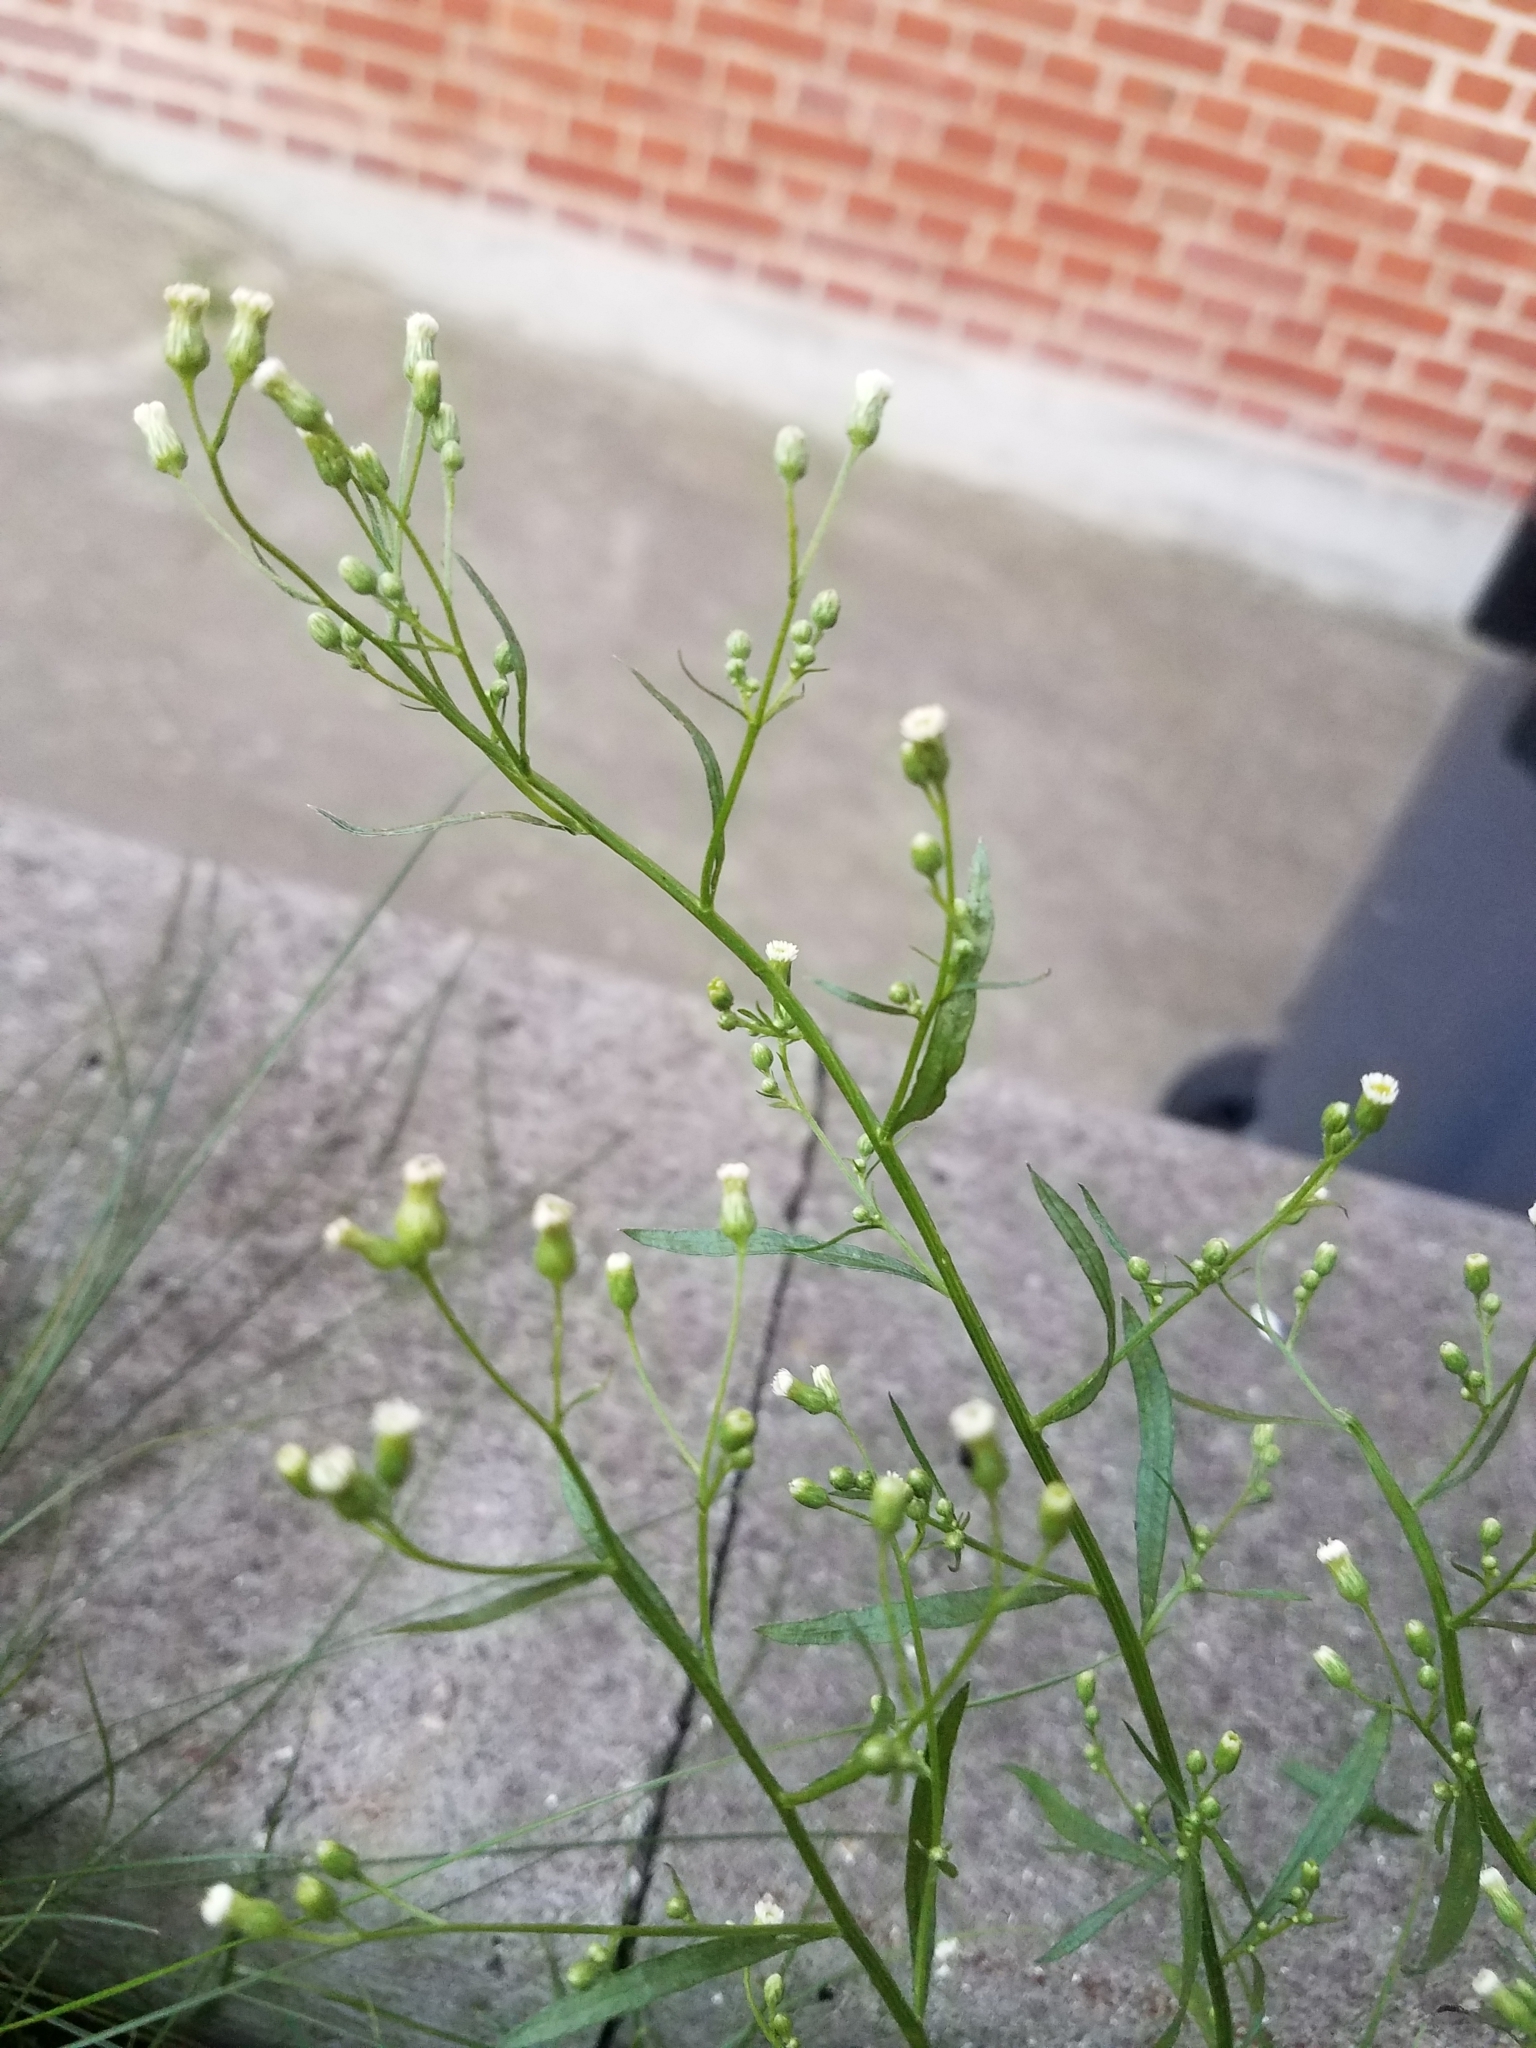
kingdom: Plantae
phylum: Tracheophyta
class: Magnoliopsida
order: Asterales
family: Asteraceae
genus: Erigeron
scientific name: Erigeron canadensis
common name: Canadian fleabane
